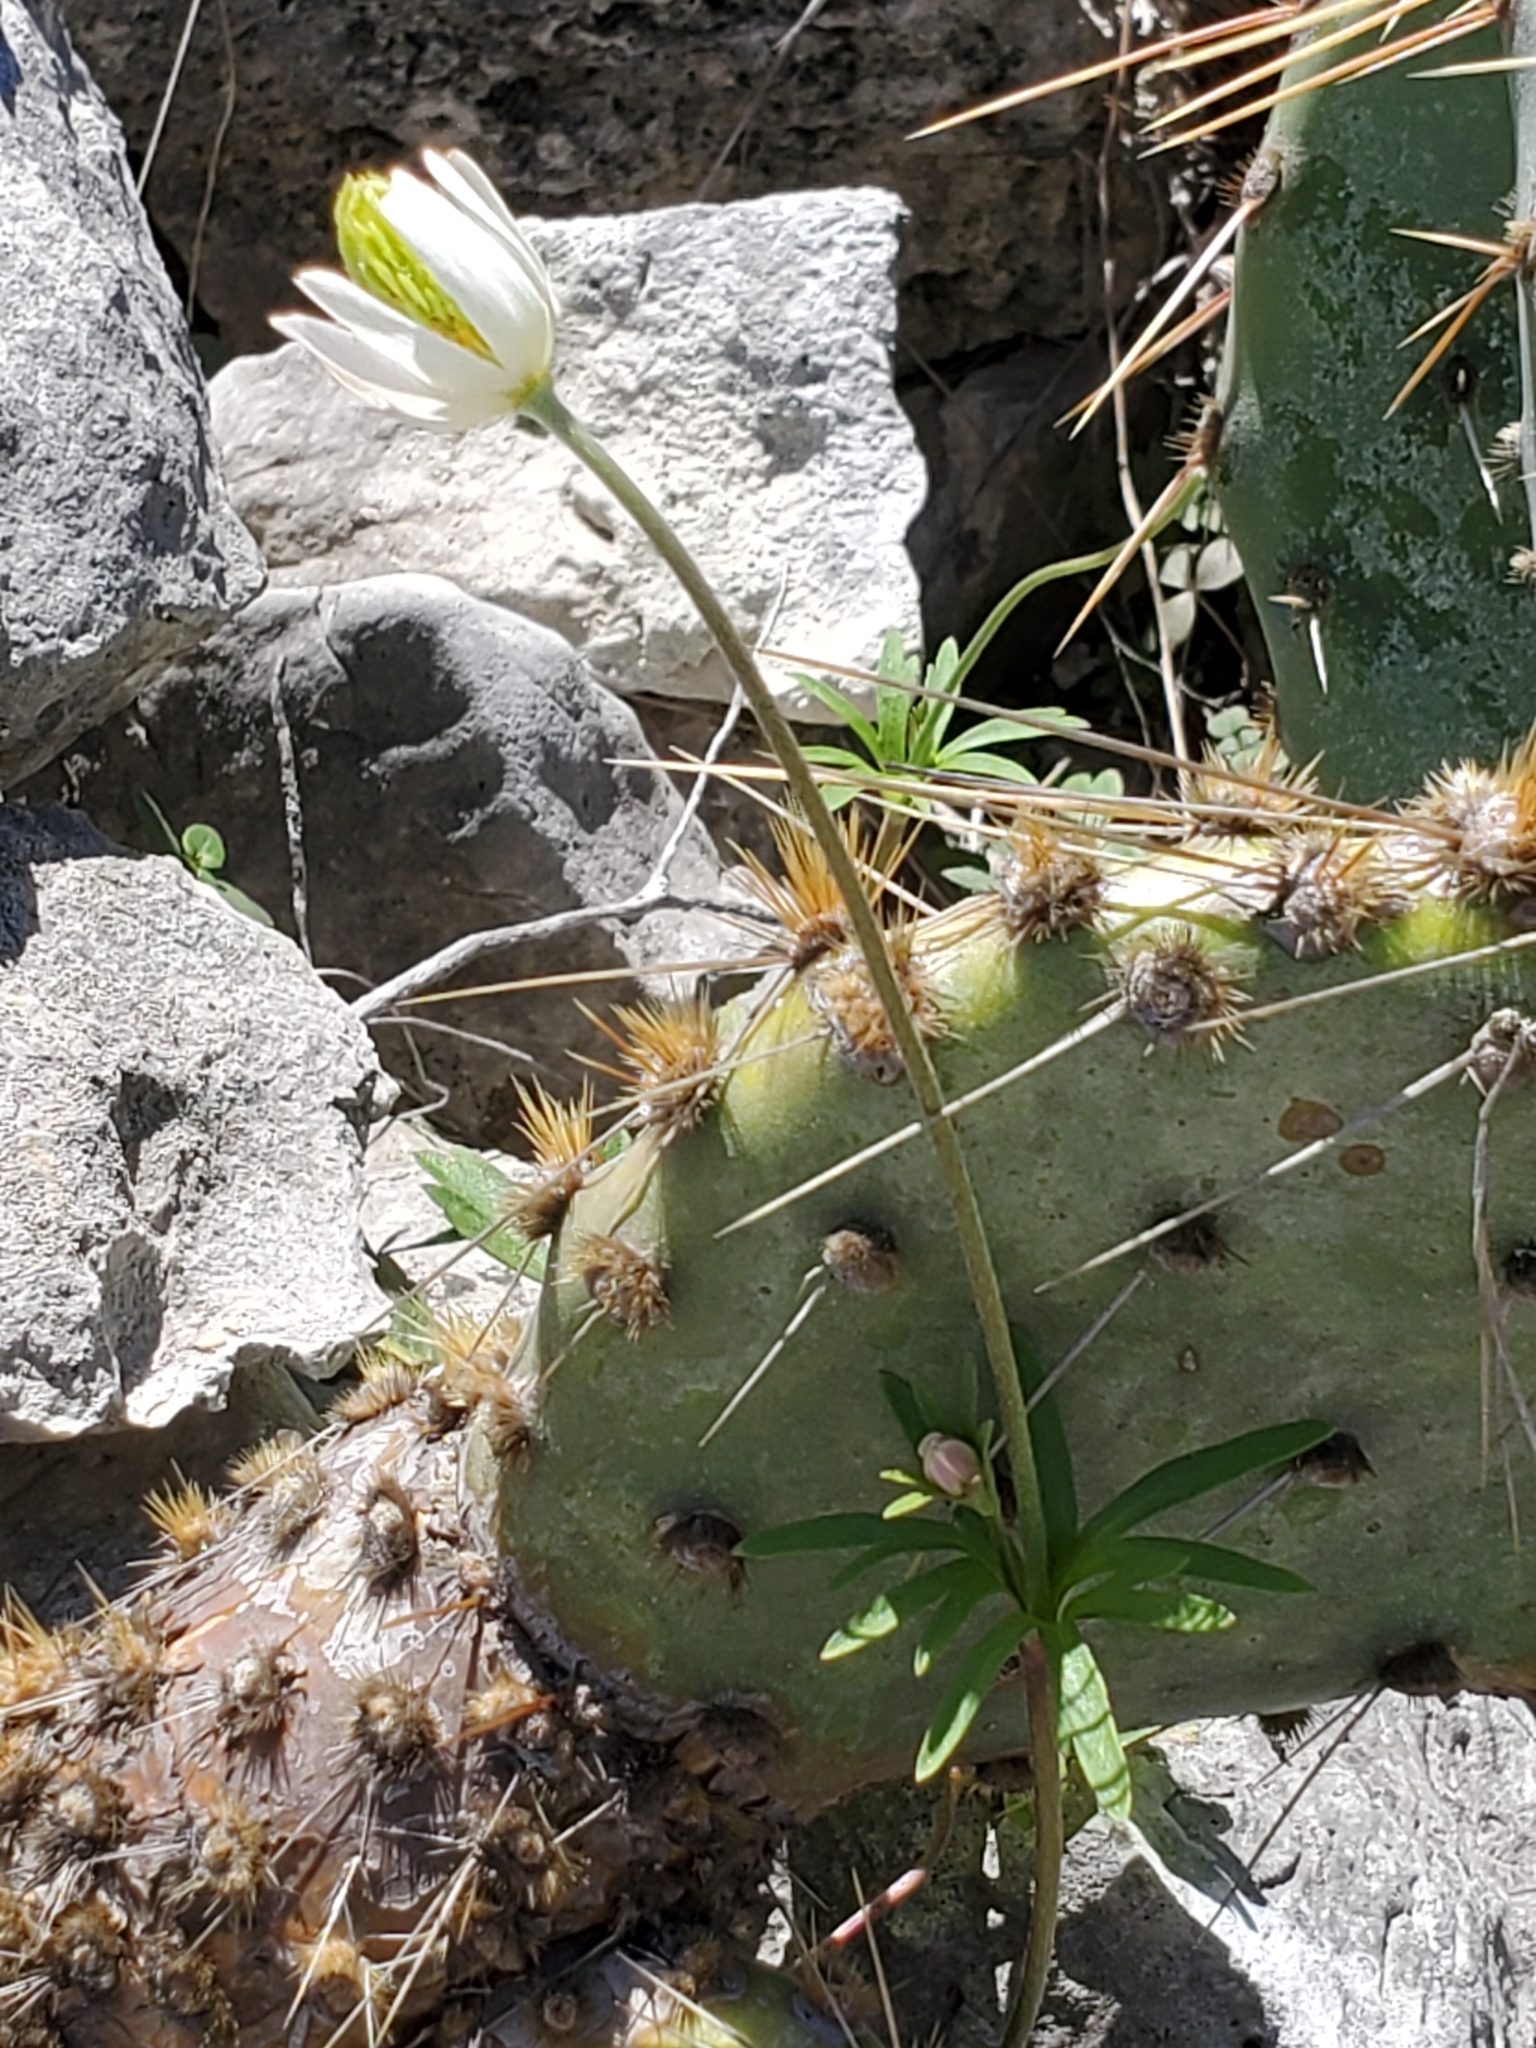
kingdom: Plantae
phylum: Tracheophyta
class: Magnoliopsida
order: Ranunculales
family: Ranunculaceae
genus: Anemone
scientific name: Anemone edwardsiana
